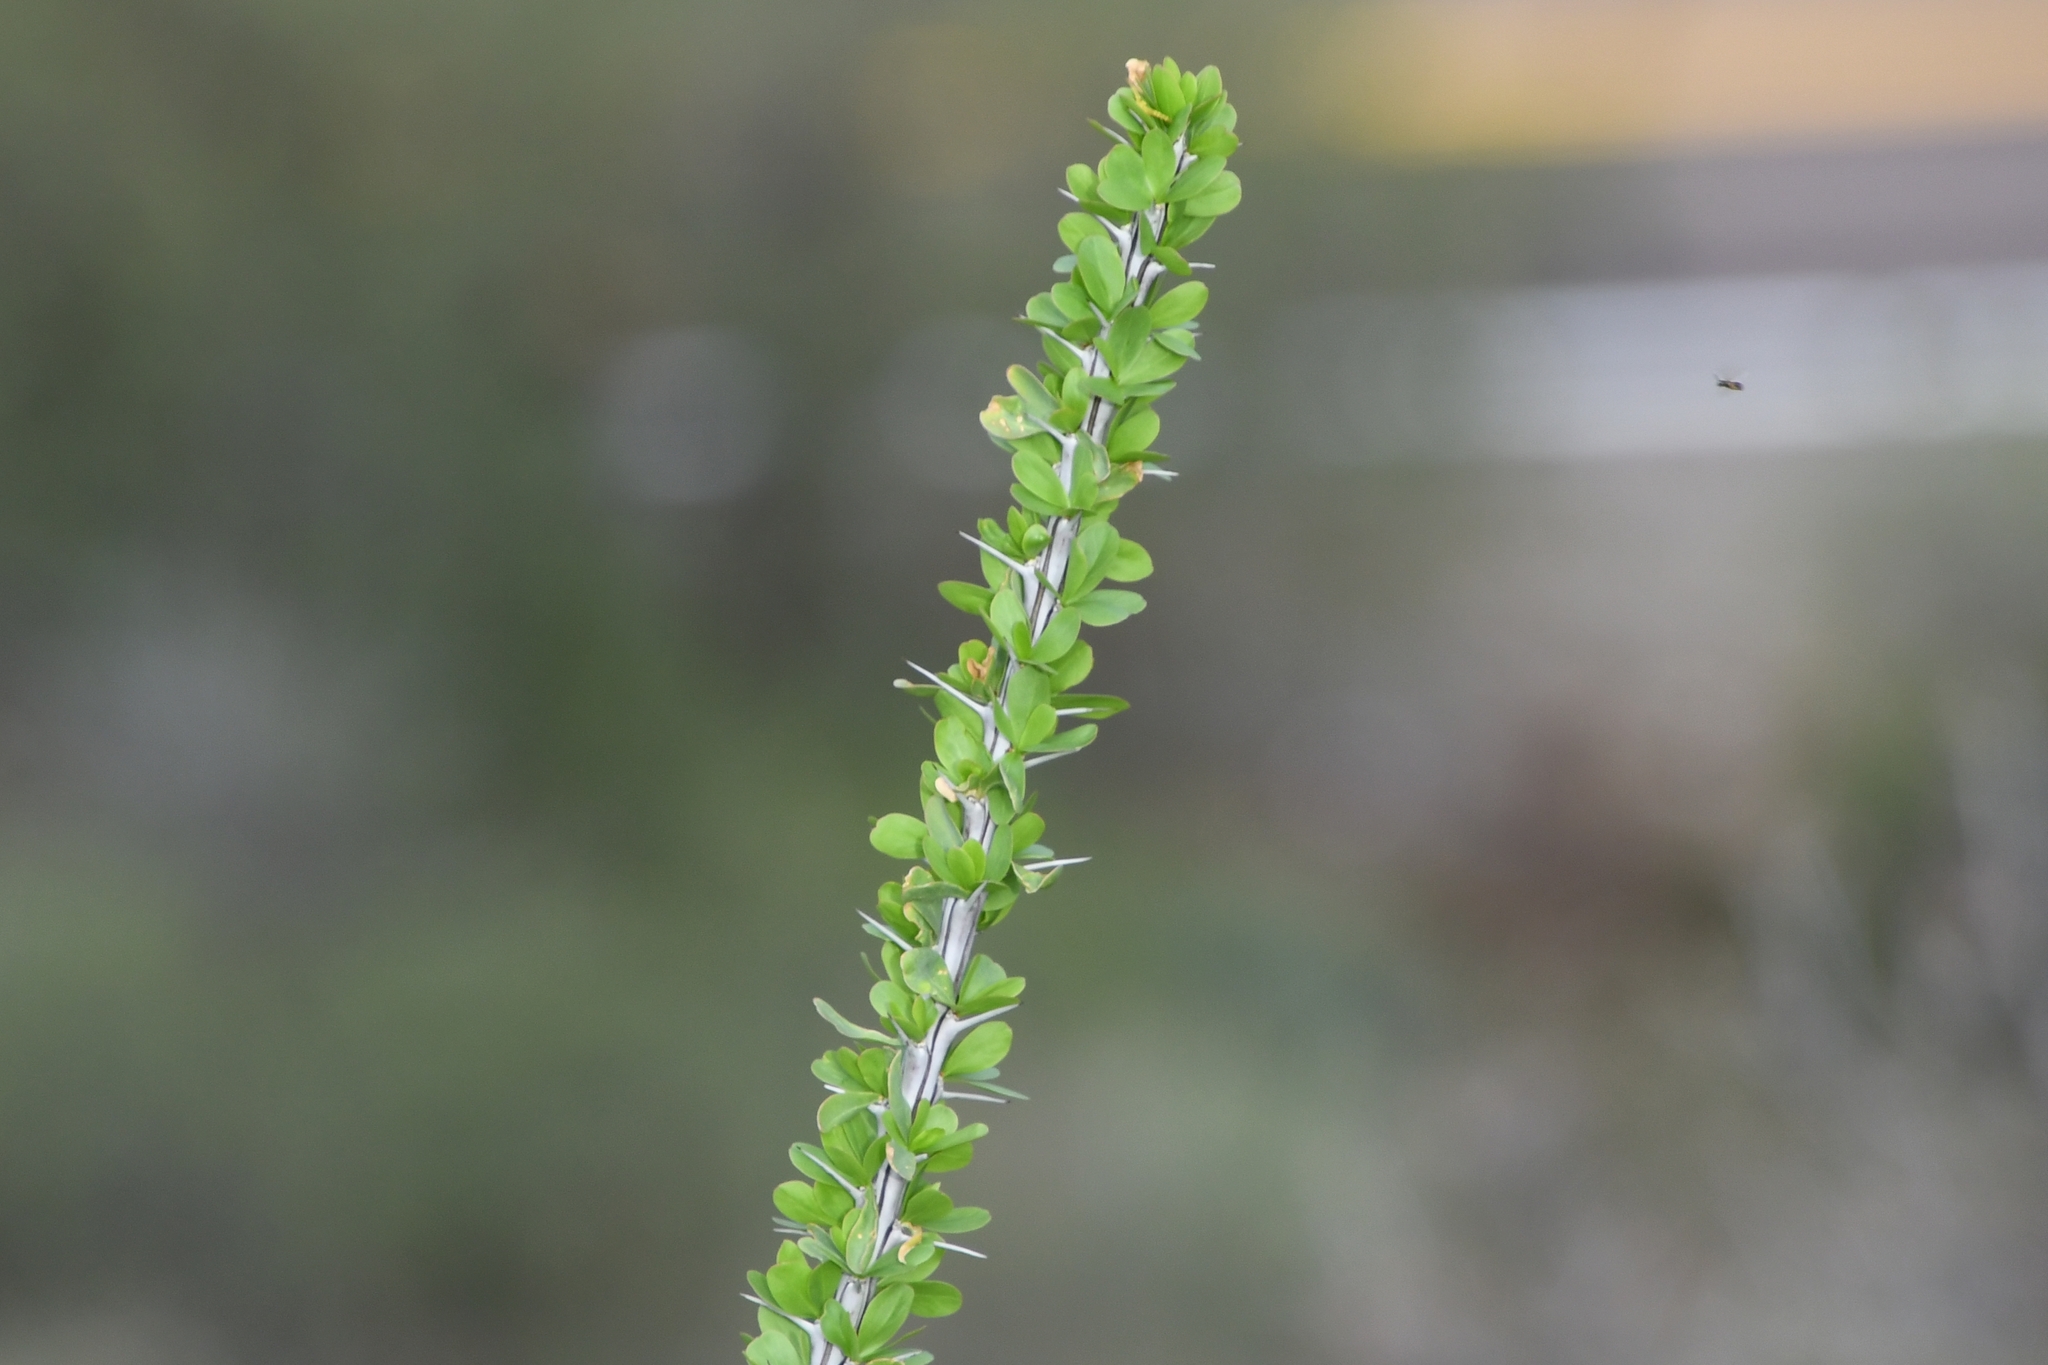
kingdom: Plantae
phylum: Tracheophyta
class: Magnoliopsida
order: Ericales
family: Fouquieriaceae
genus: Fouquieria
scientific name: Fouquieria splendens
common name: Vine-cactus
